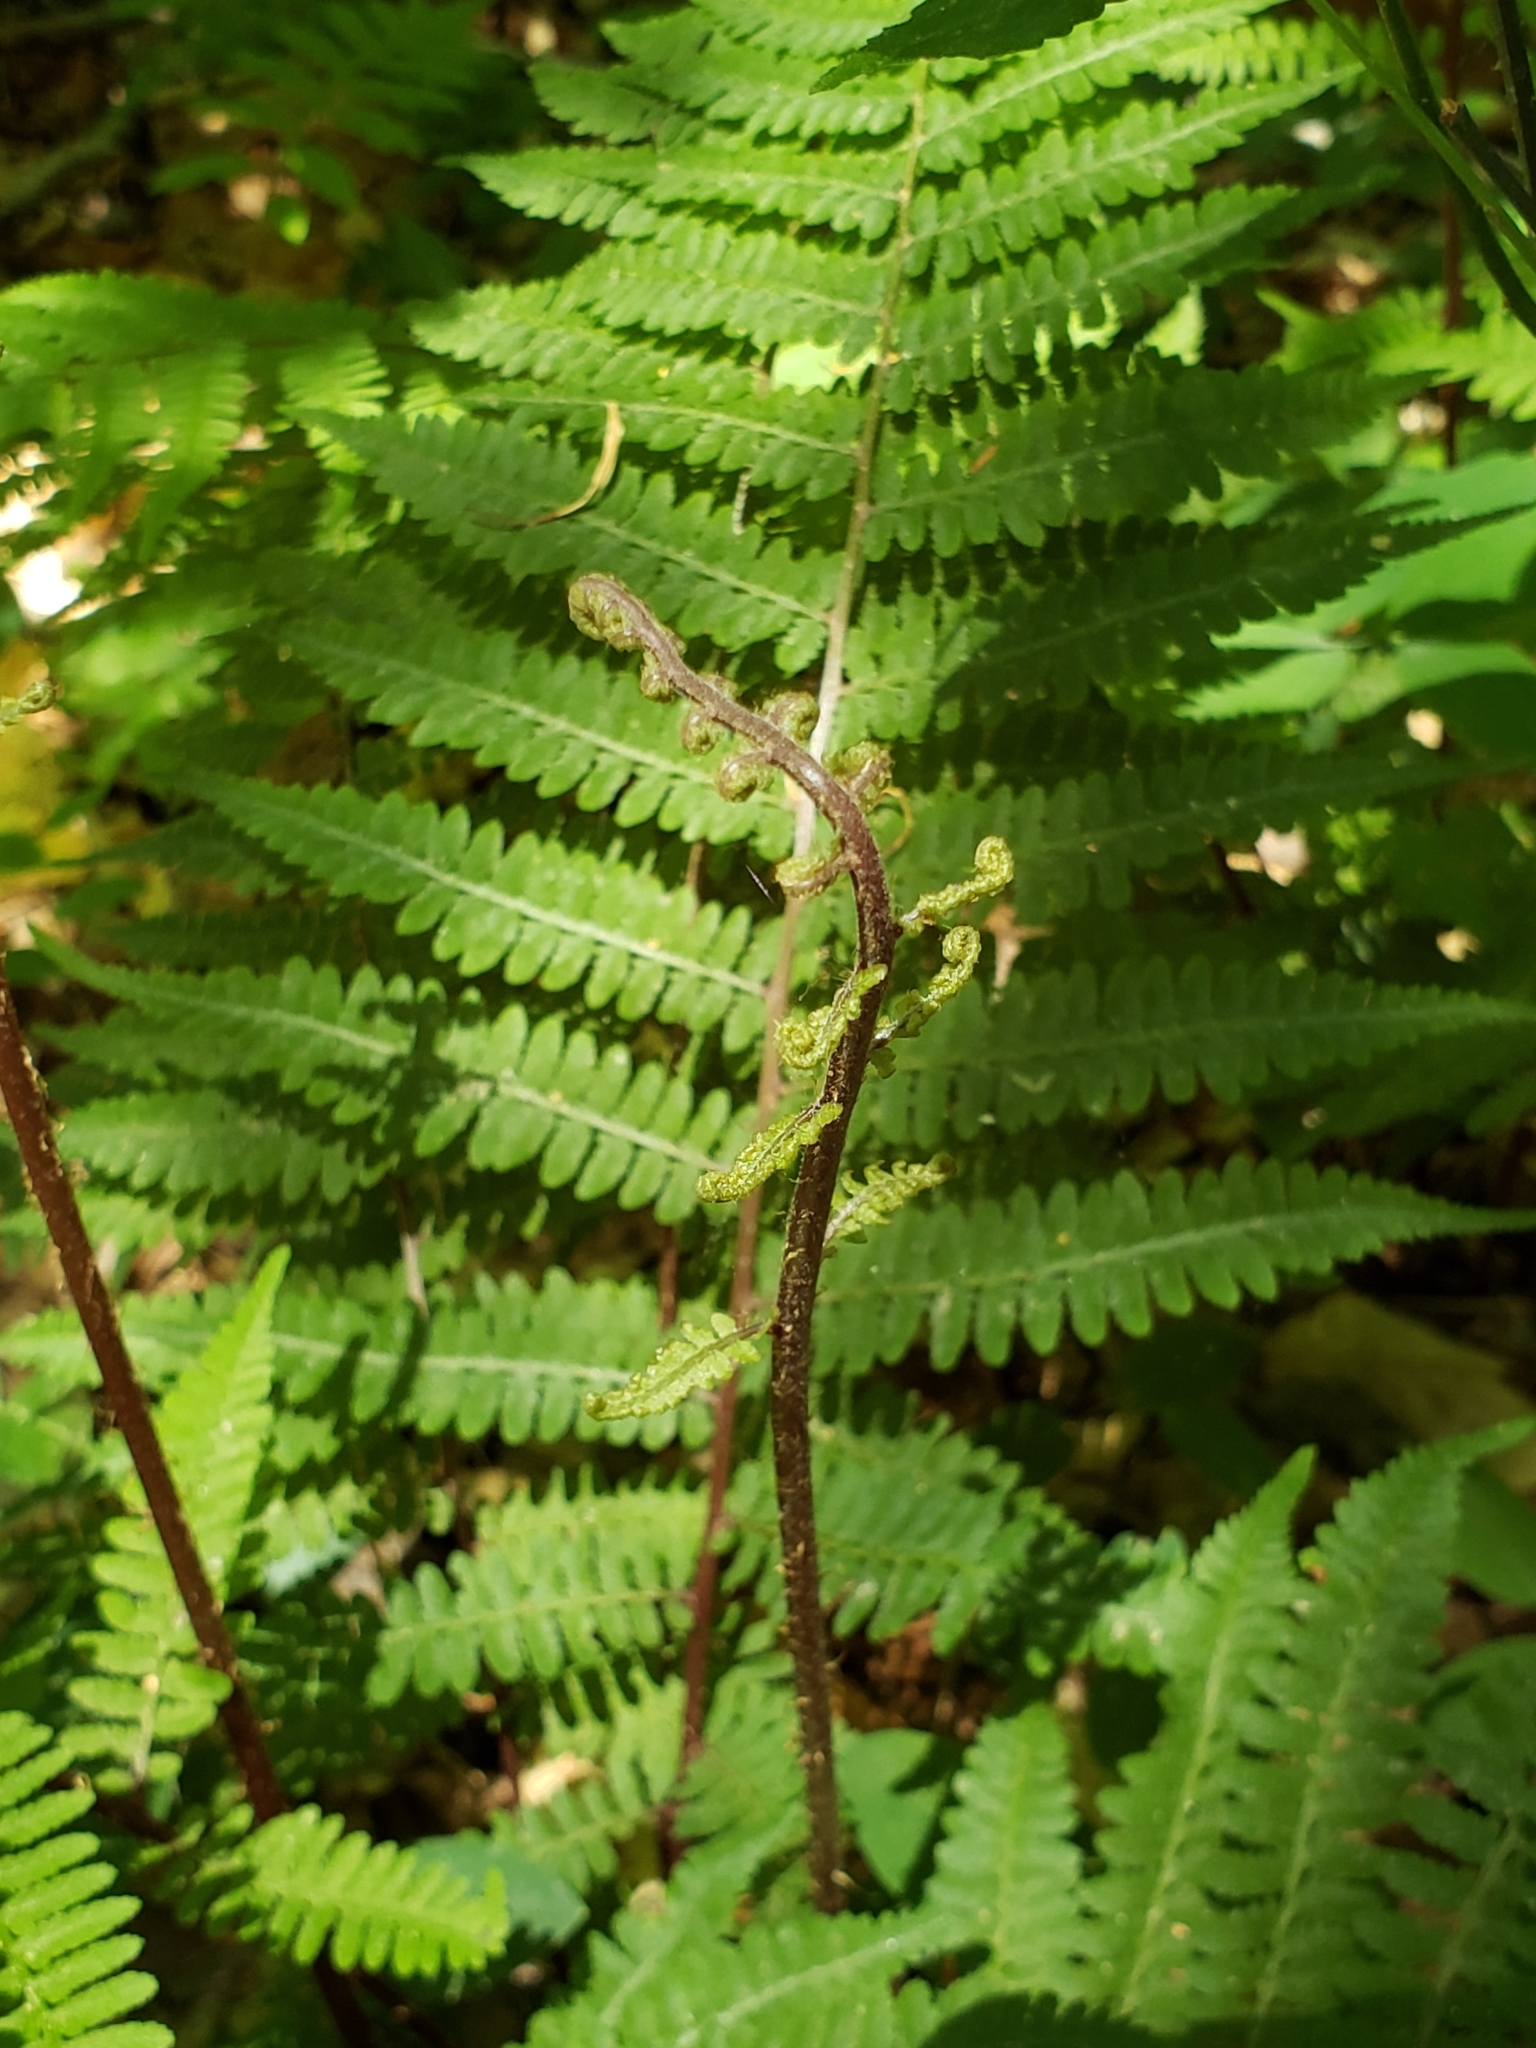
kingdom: Plantae
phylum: Tracheophyta
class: Polypodiopsida
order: Polypodiales
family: Athyriaceae
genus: Athyrium
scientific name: Athyrium asplenioides
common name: Southern lady fern
